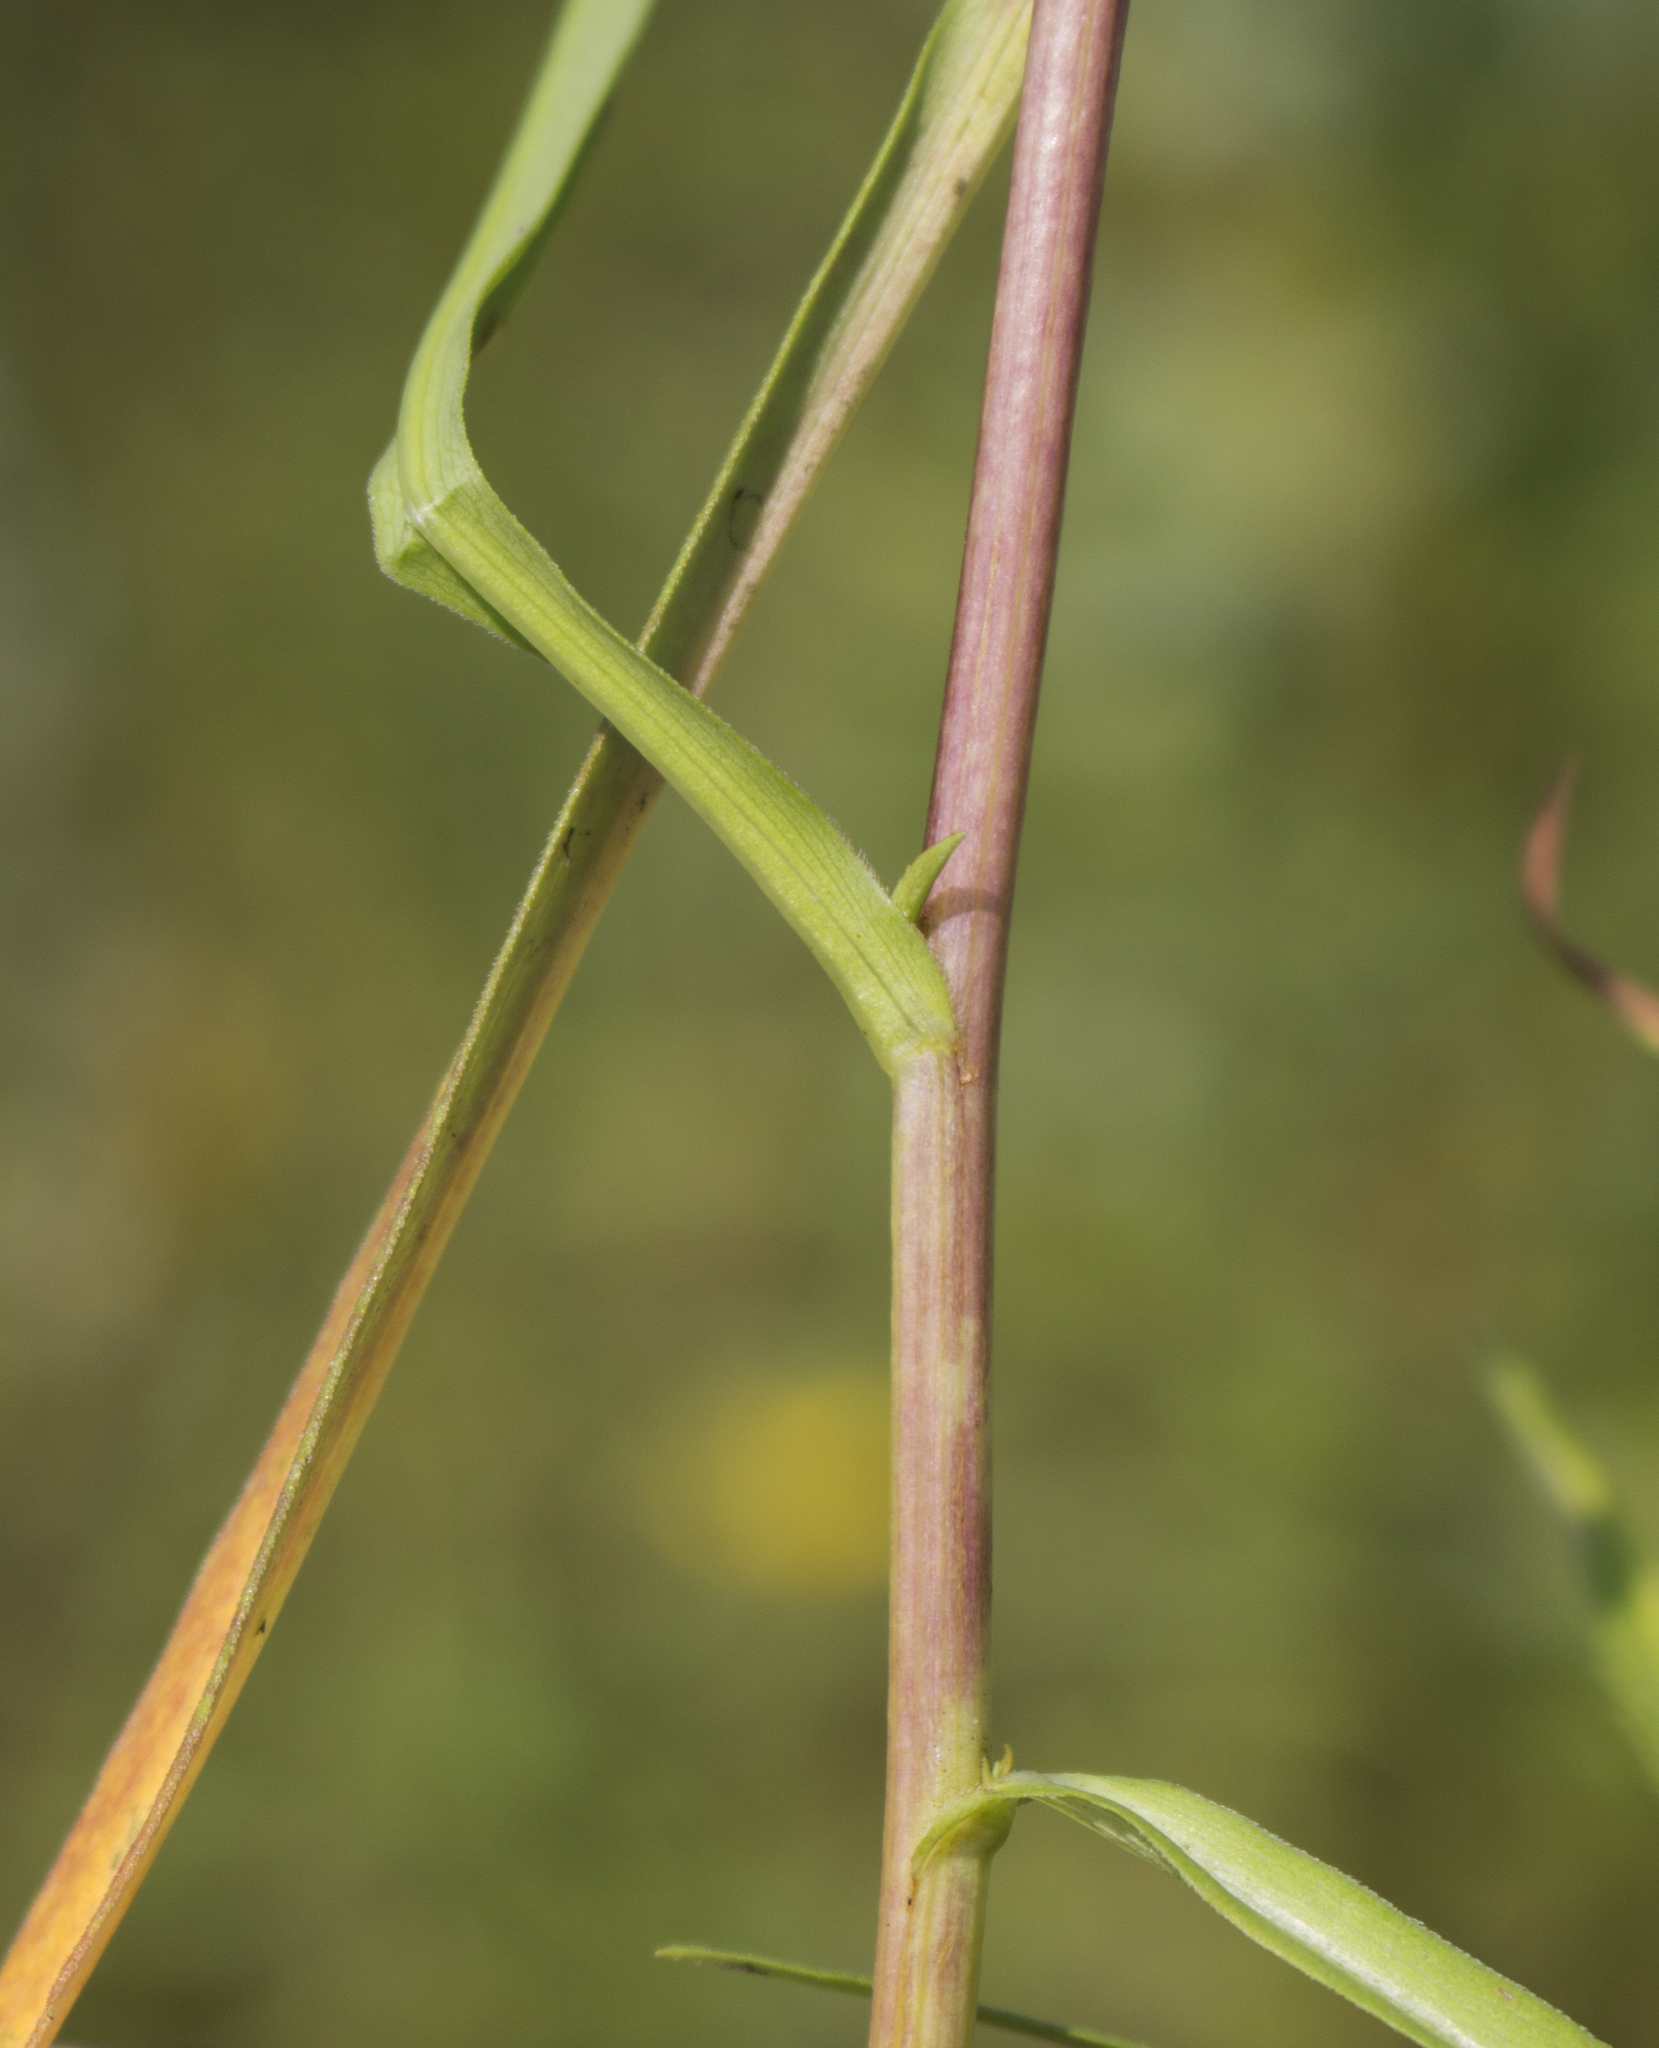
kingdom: Plantae
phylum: Tracheophyta
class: Magnoliopsida
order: Asterales
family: Asteraceae
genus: Symphyotrichum
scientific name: Symphyotrichum firmum
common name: Shining aster
